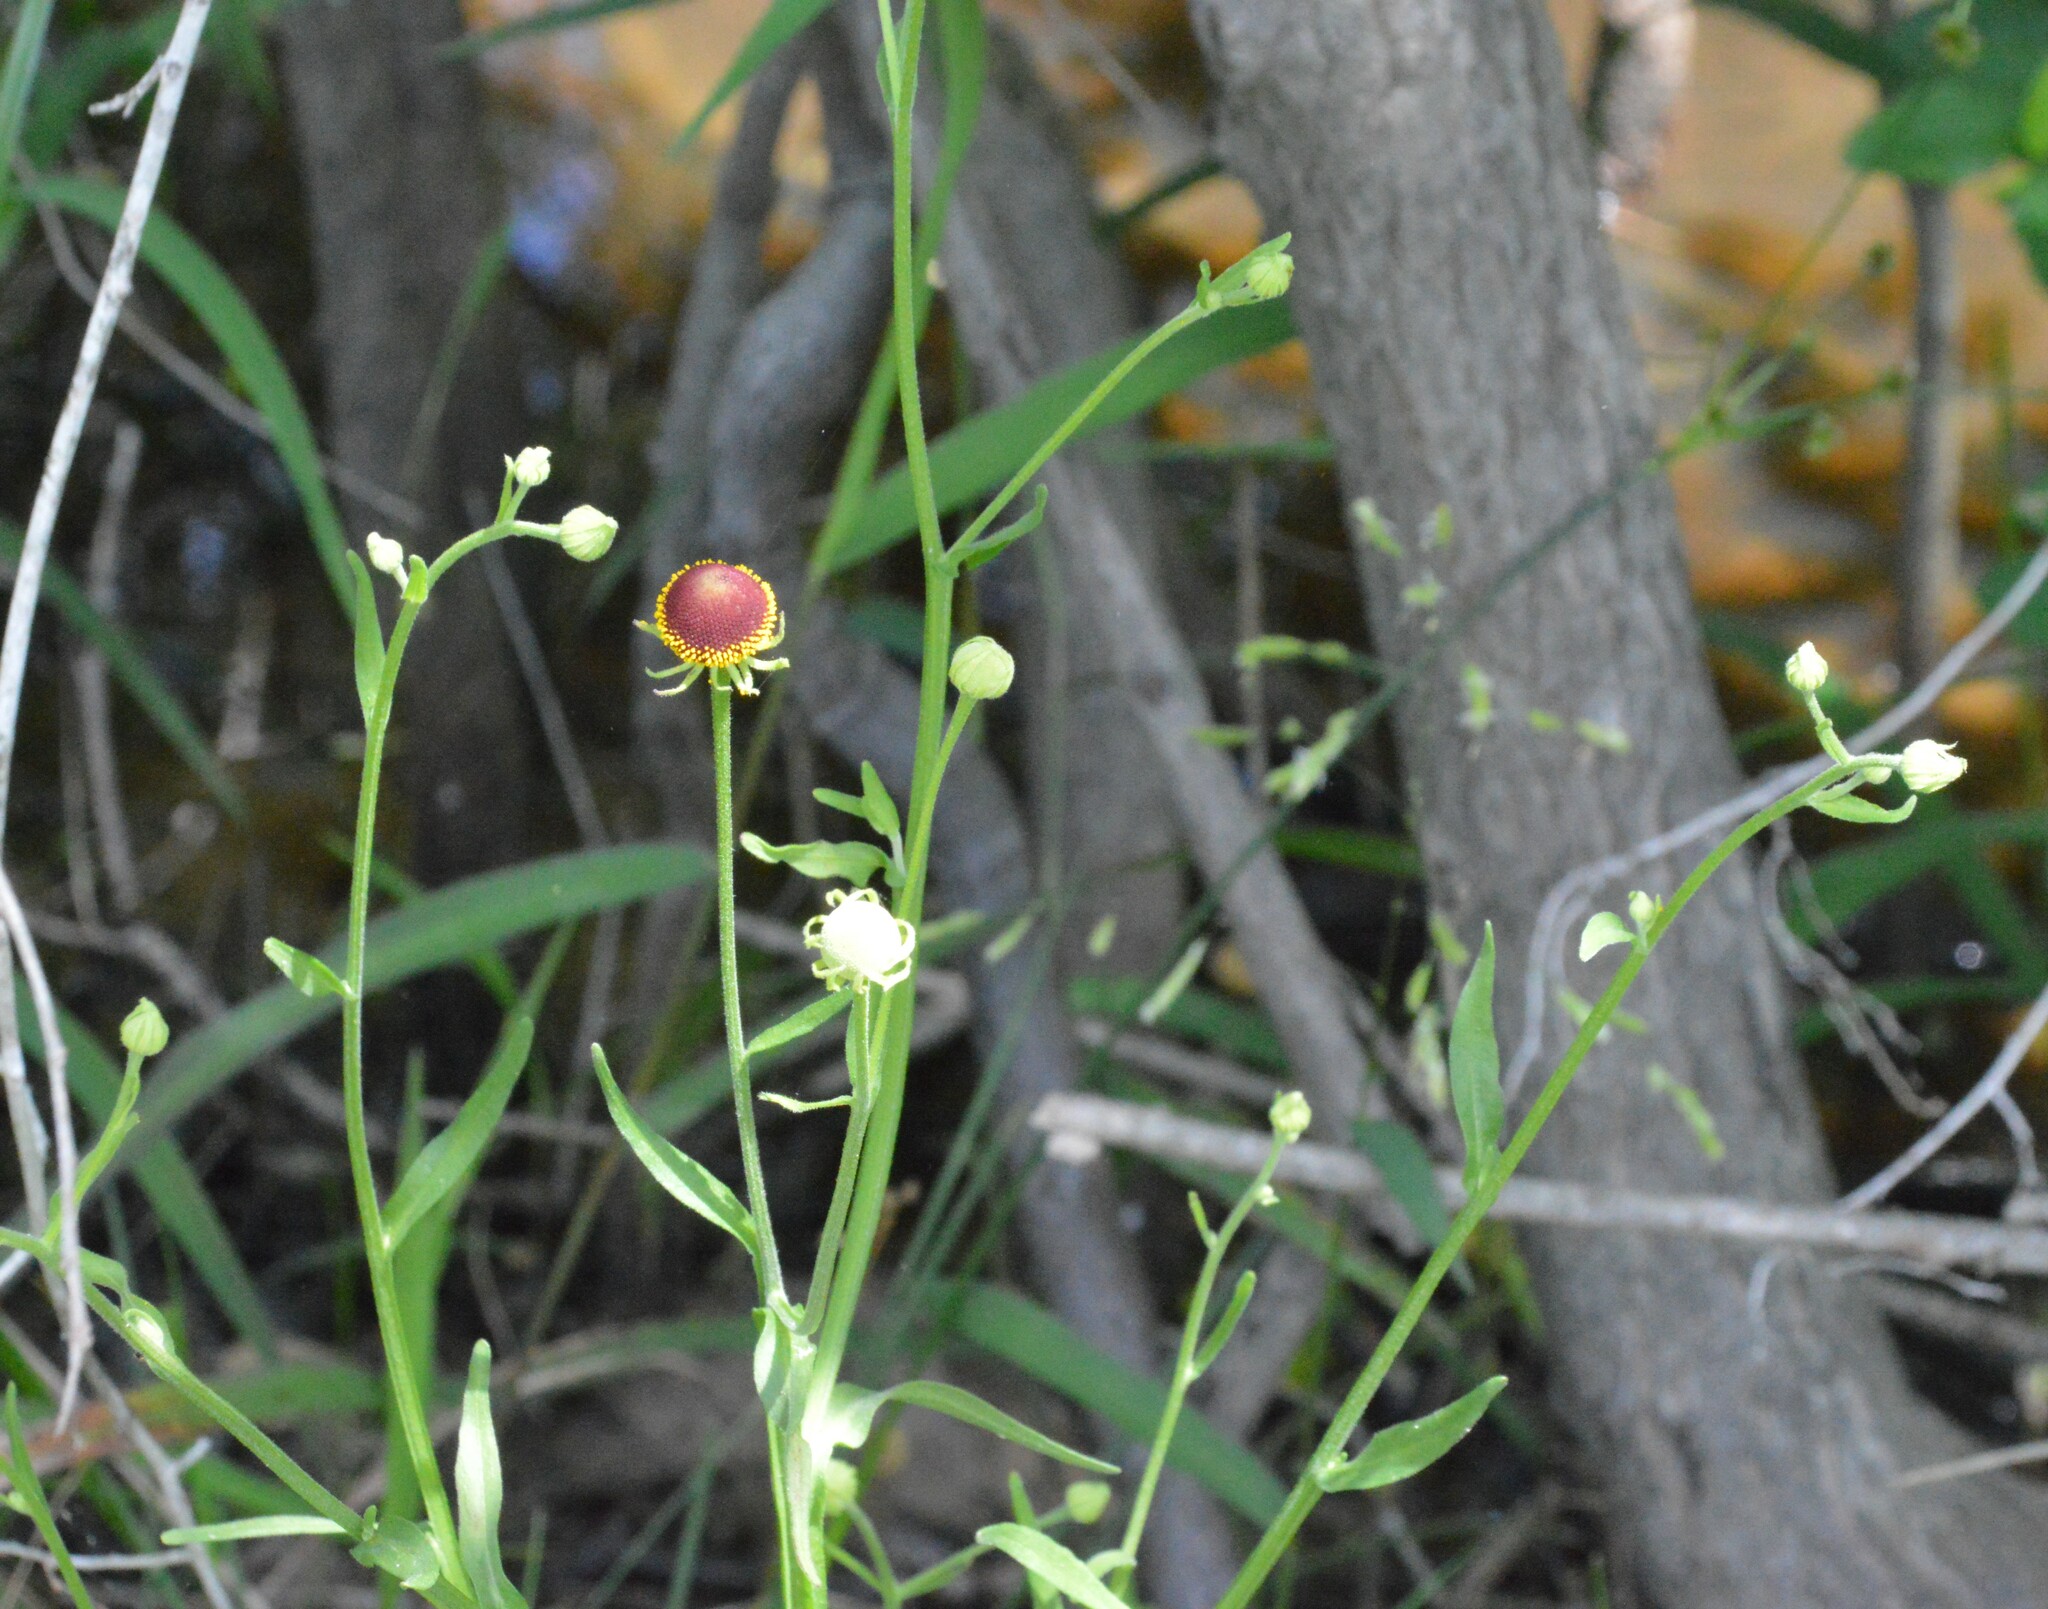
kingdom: Plantae
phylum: Tracheophyta
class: Magnoliopsida
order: Asterales
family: Asteraceae
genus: Helenium
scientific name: Helenium flexuosum
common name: Naked-flowered sneezeweed
